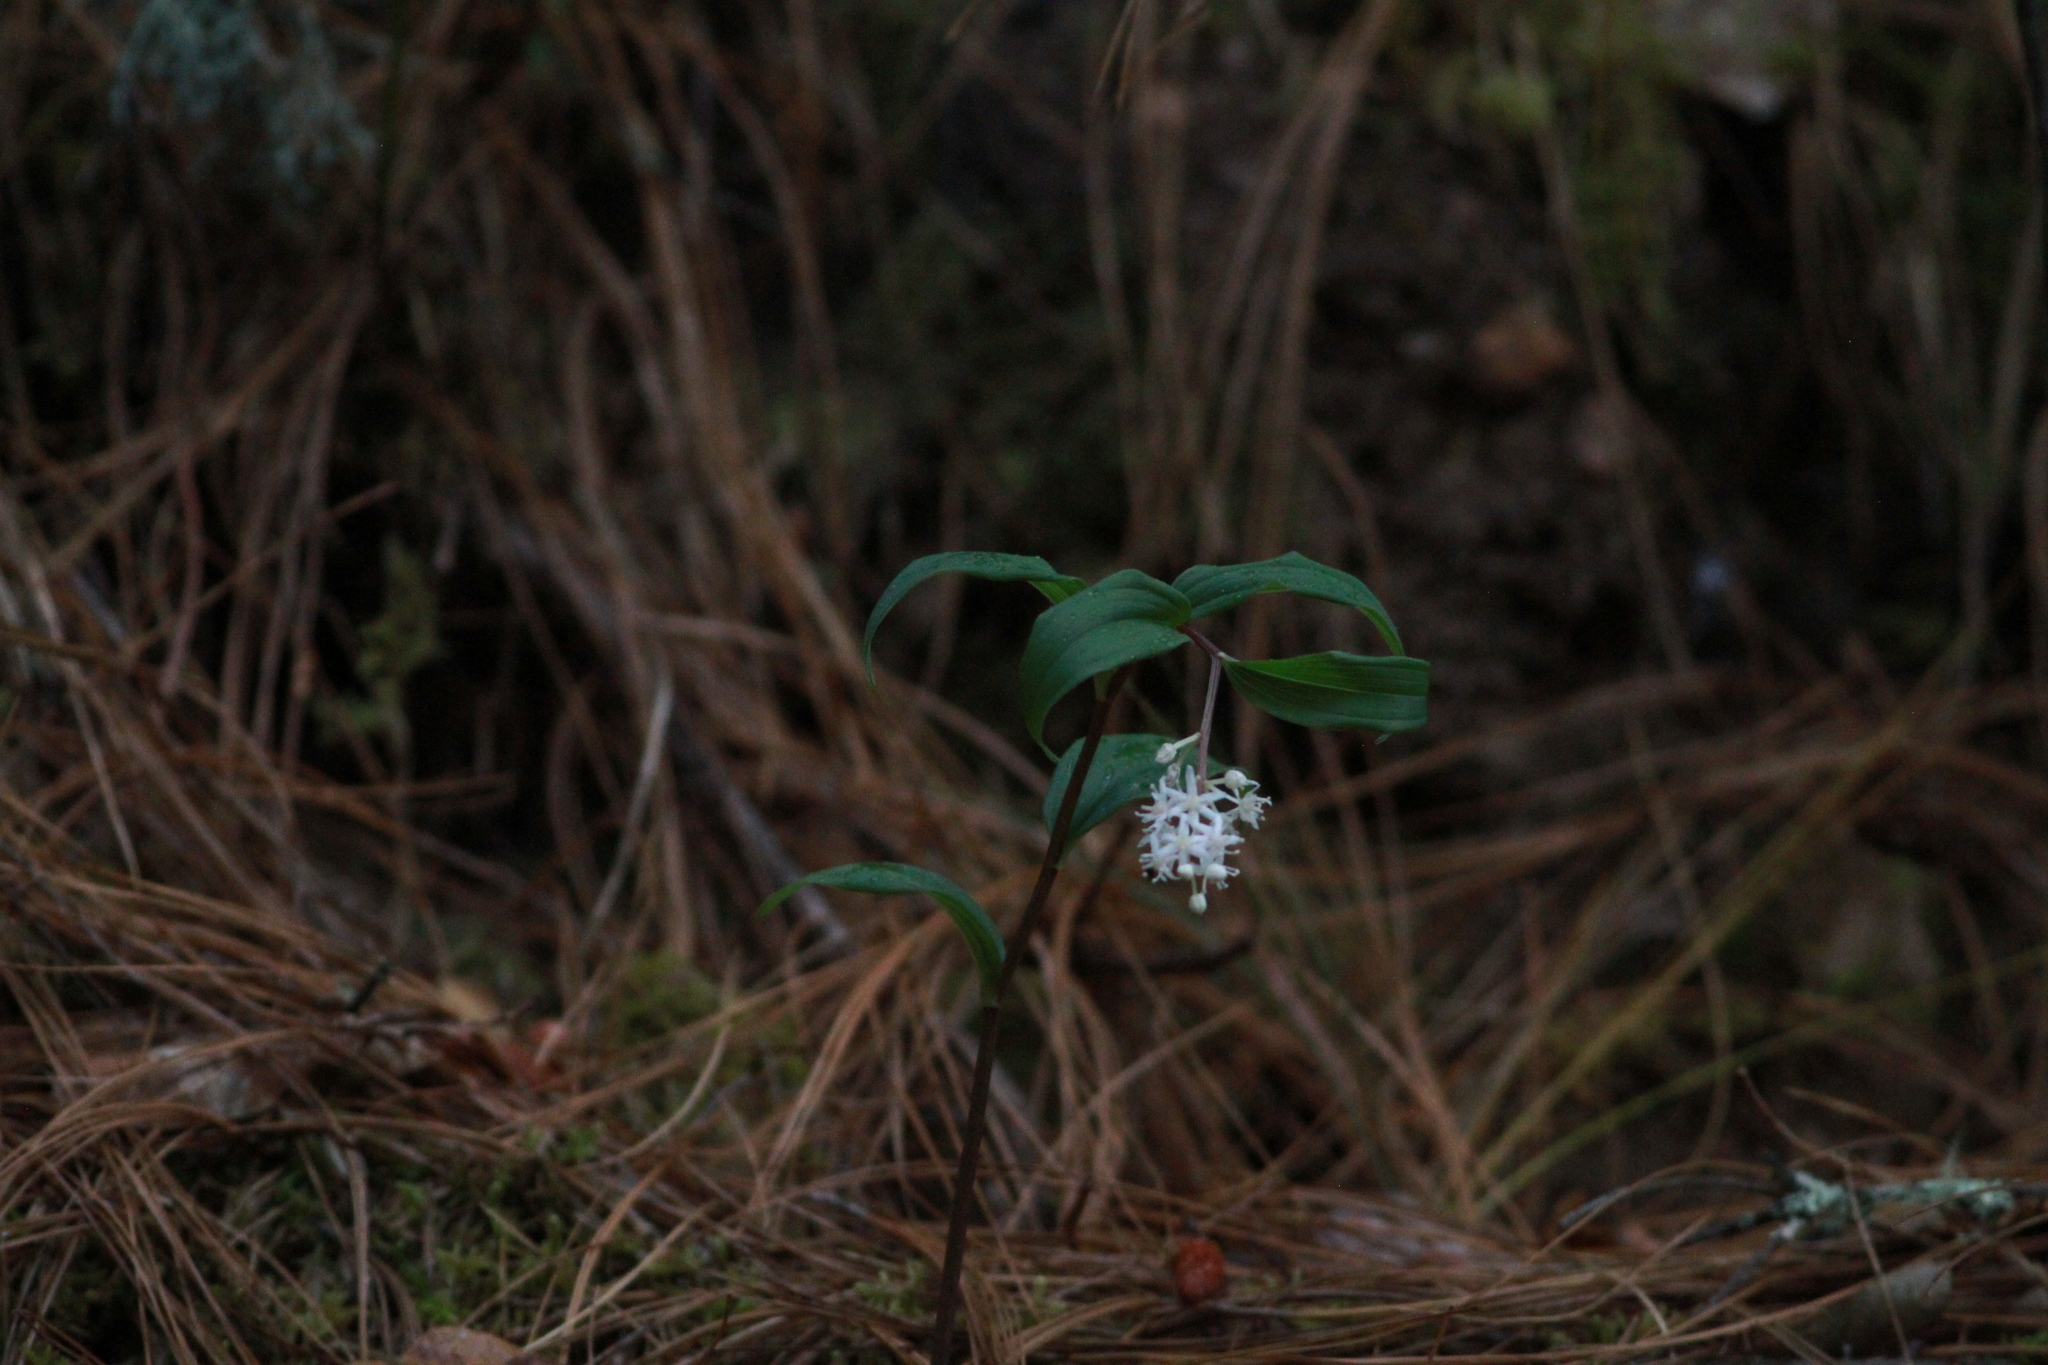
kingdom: Plantae
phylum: Tracheophyta
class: Liliopsida
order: Asparagales
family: Asparagaceae
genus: Maianthemum
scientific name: Maianthemum scilloideum
